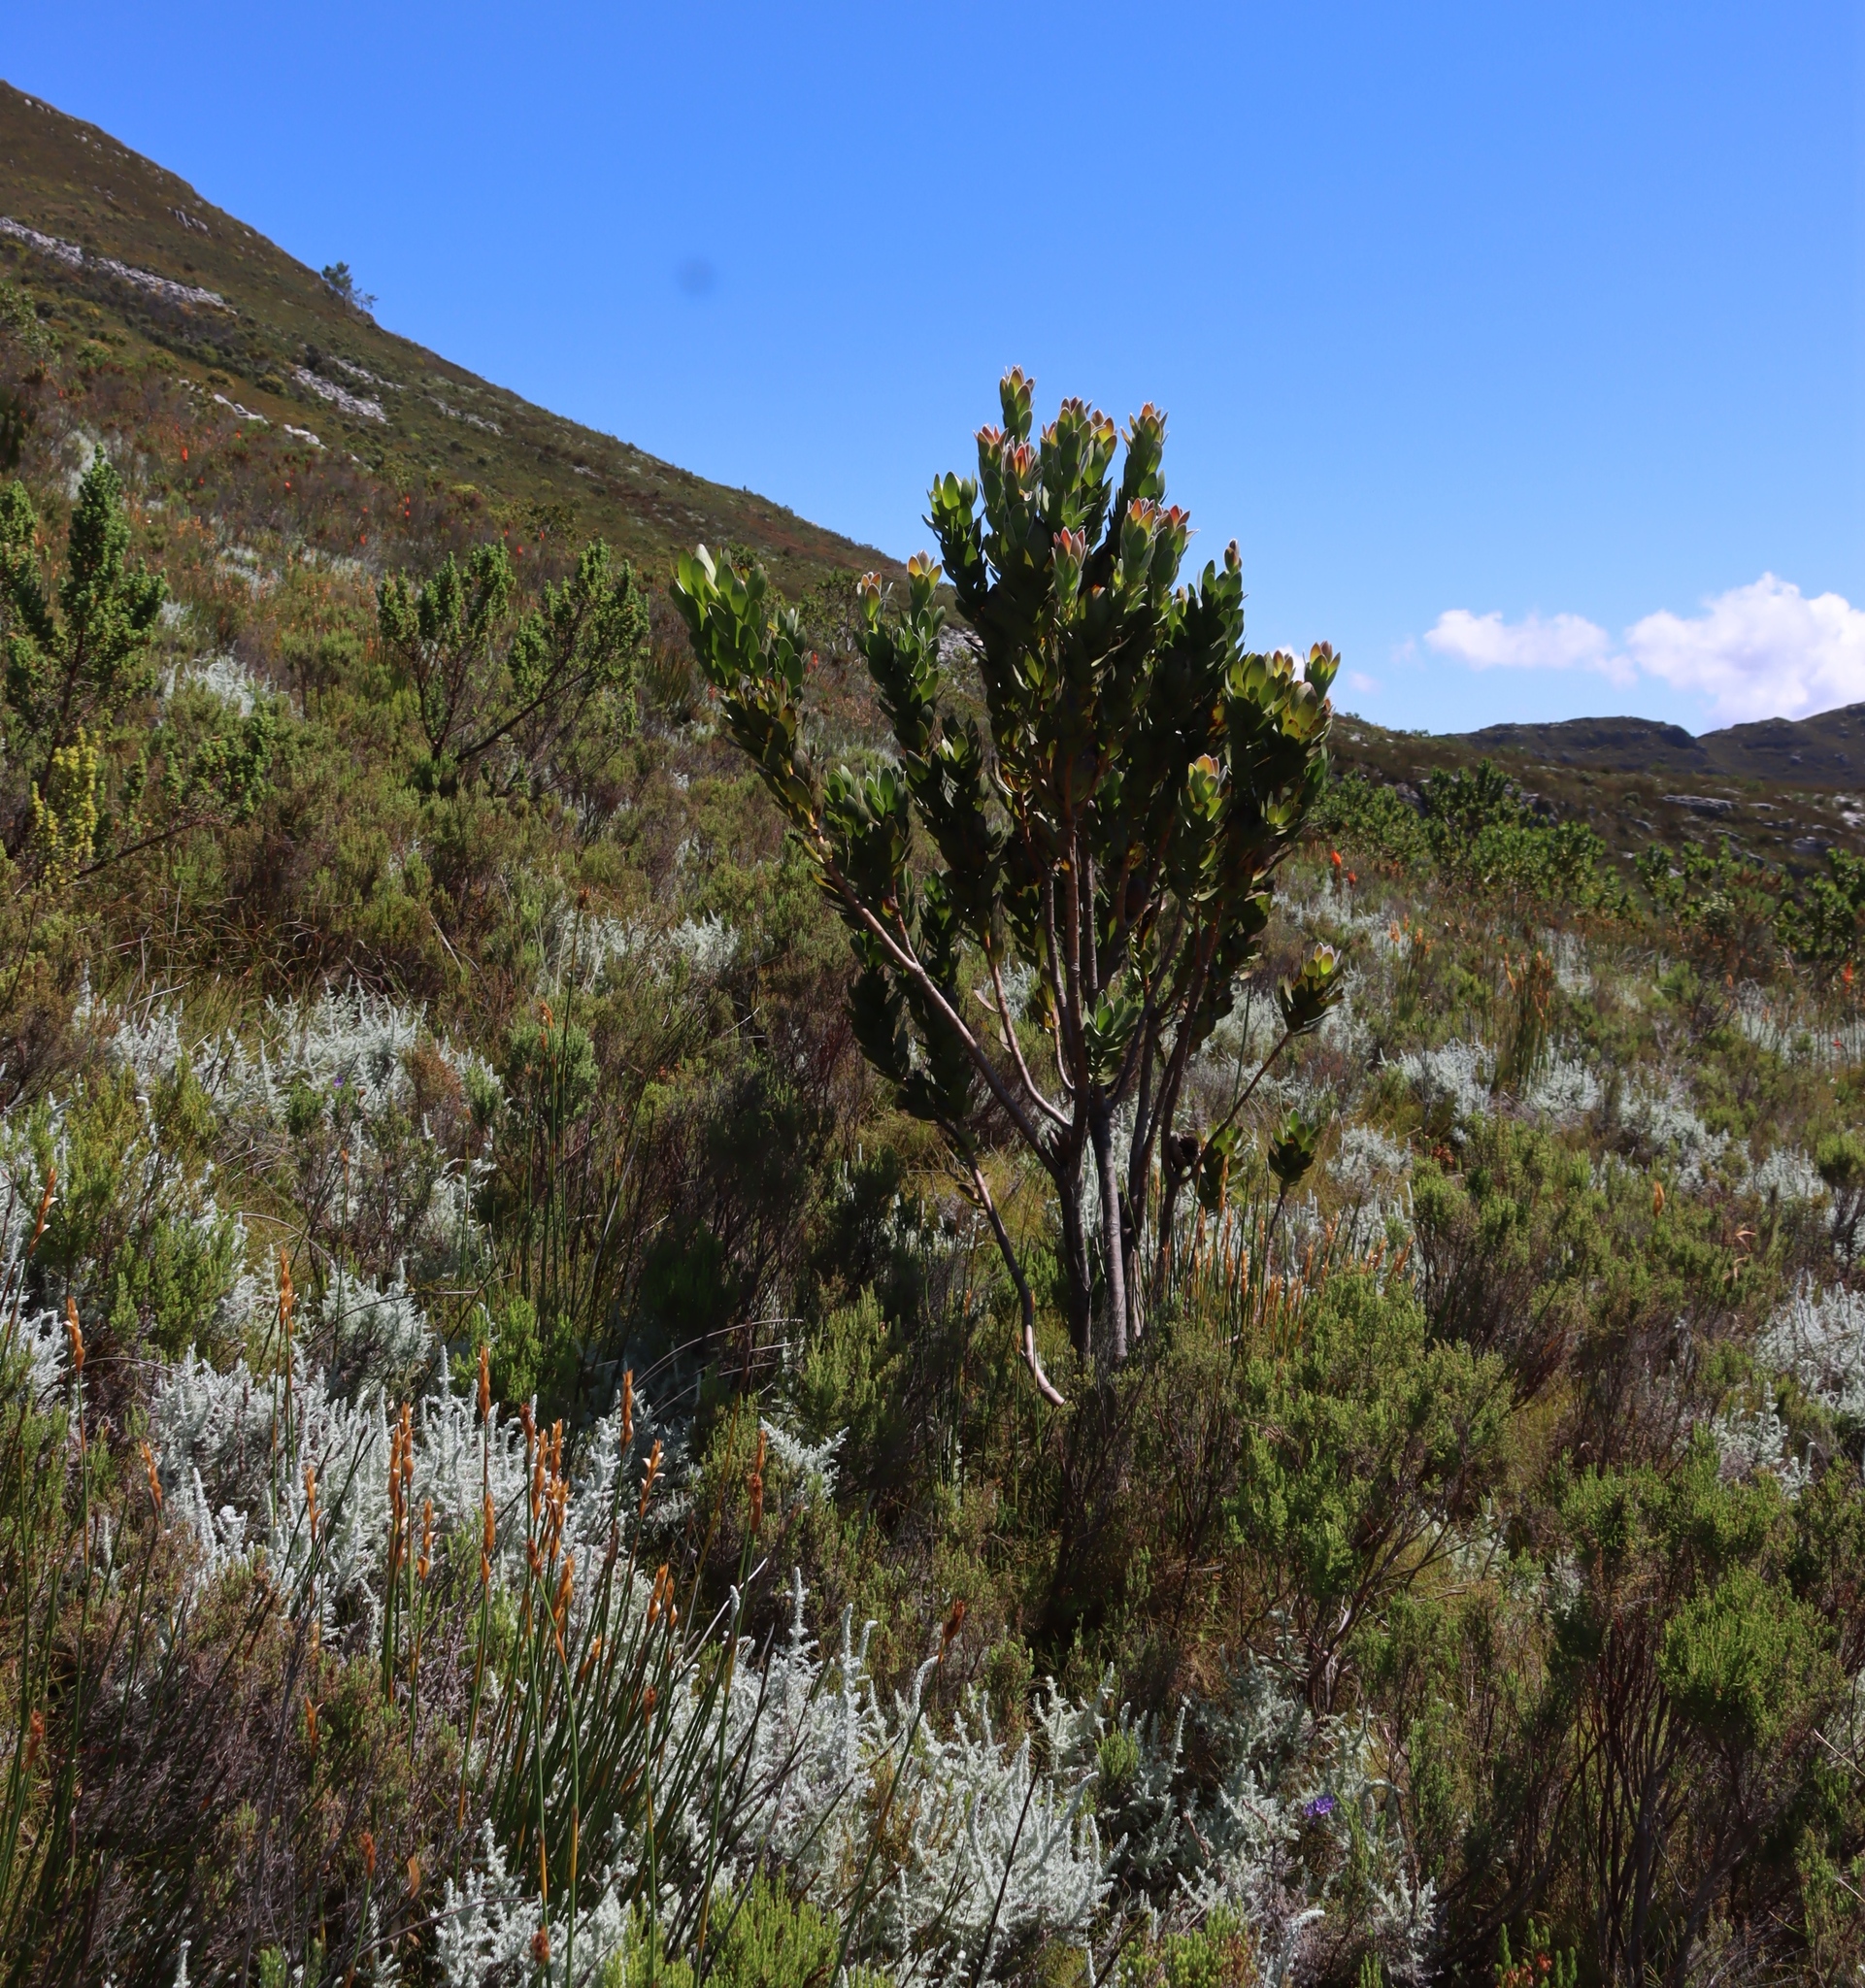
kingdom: Plantae
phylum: Tracheophyta
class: Magnoliopsida
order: Proteales
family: Proteaceae
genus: Protea
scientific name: Protea lacticolor
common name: Hottentot sugarbush
